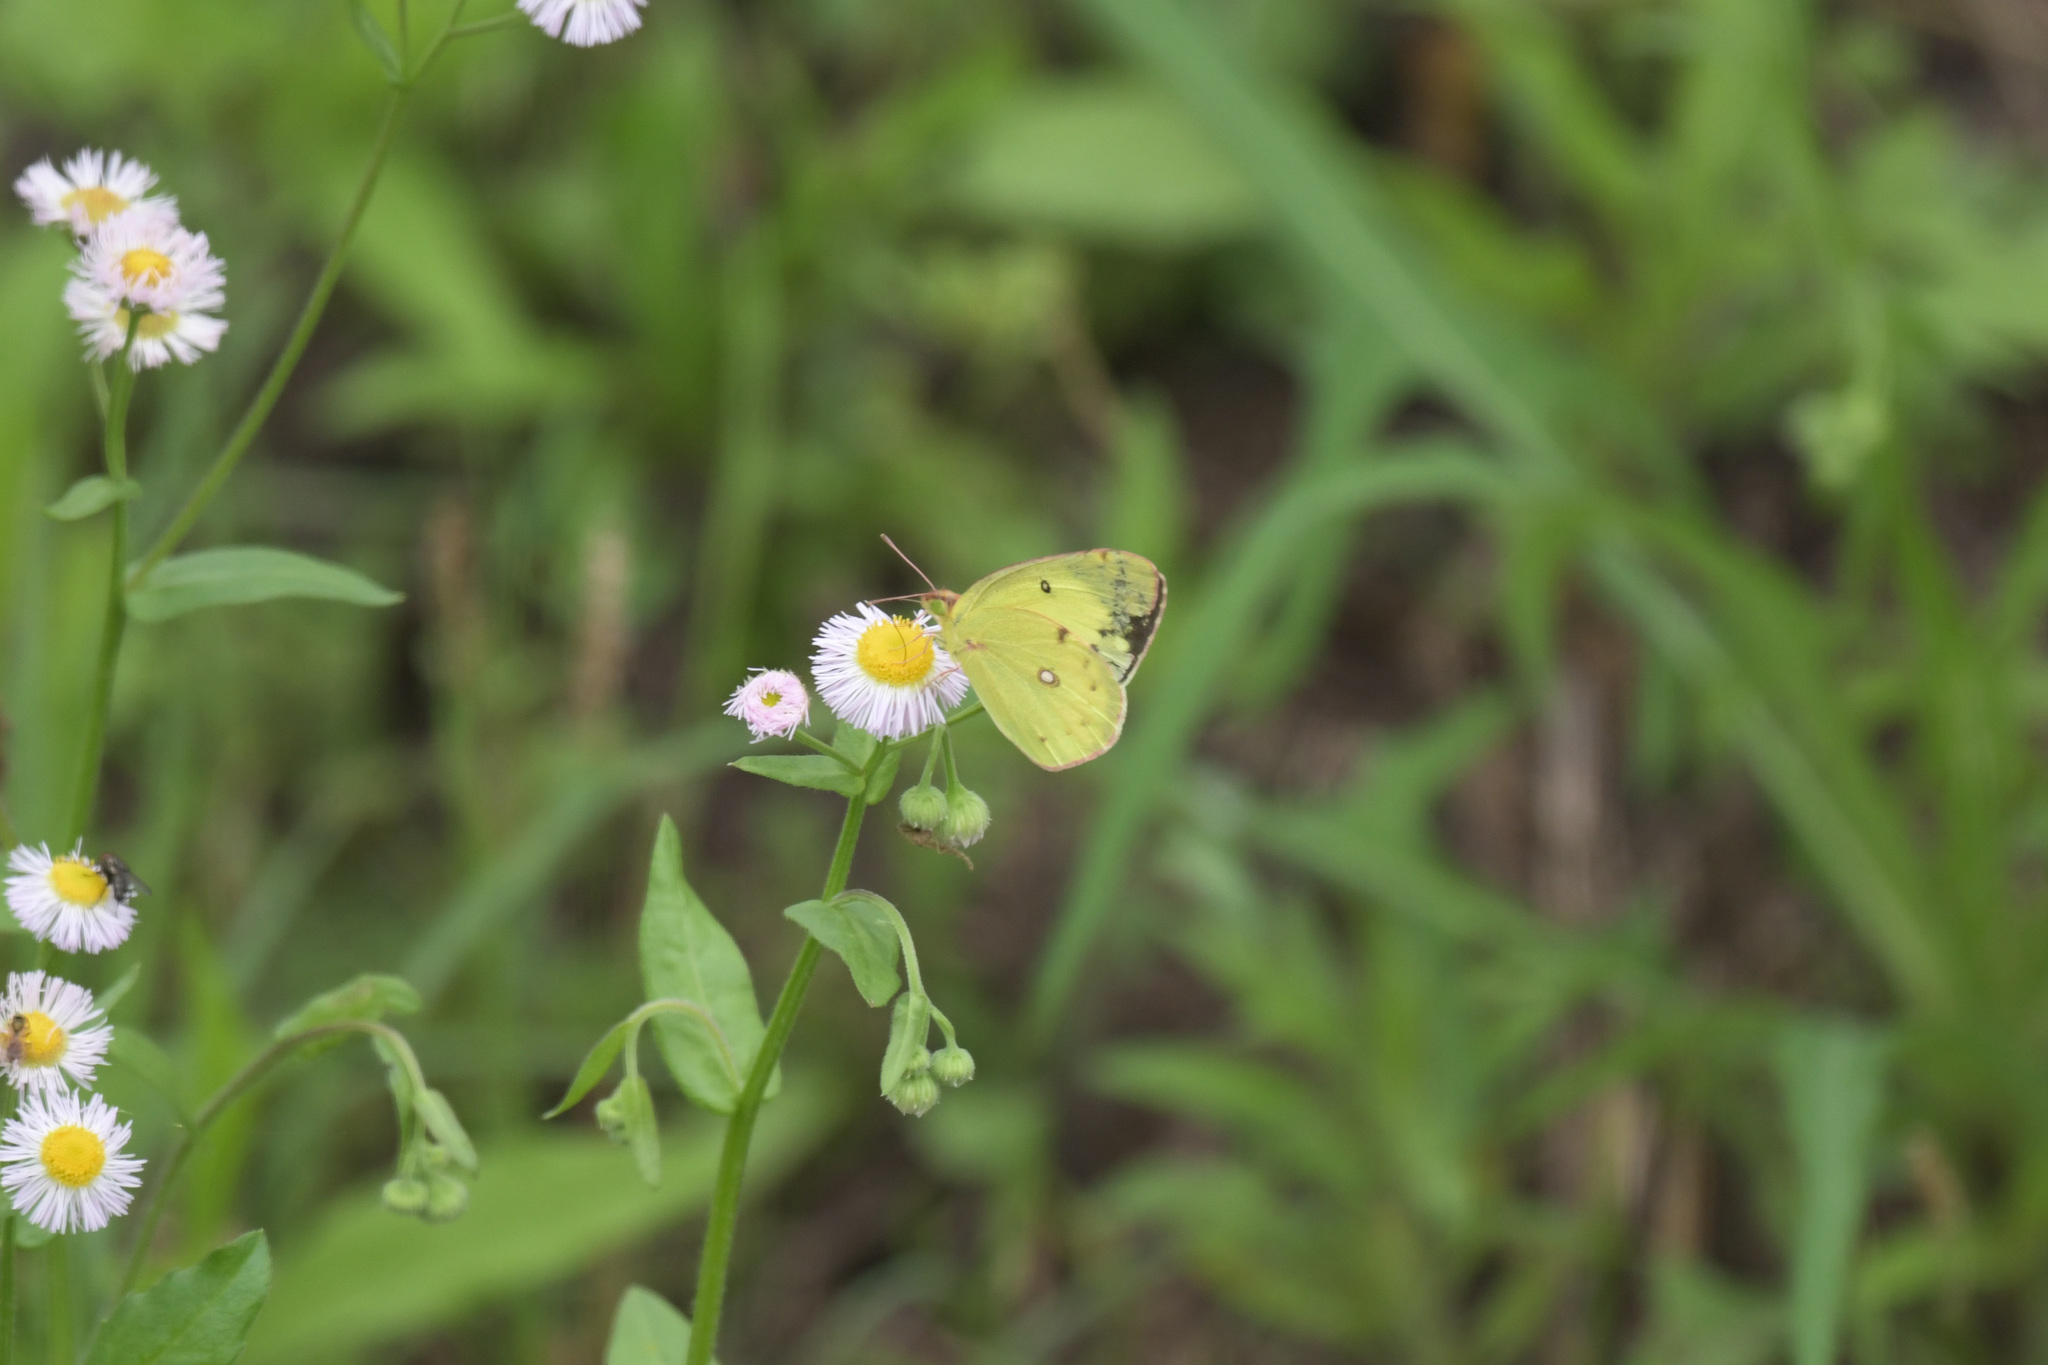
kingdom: Animalia
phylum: Arthropoda
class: Insecta
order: Lepidoptera
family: Pieridae
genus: Colias
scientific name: Colias poliographus
